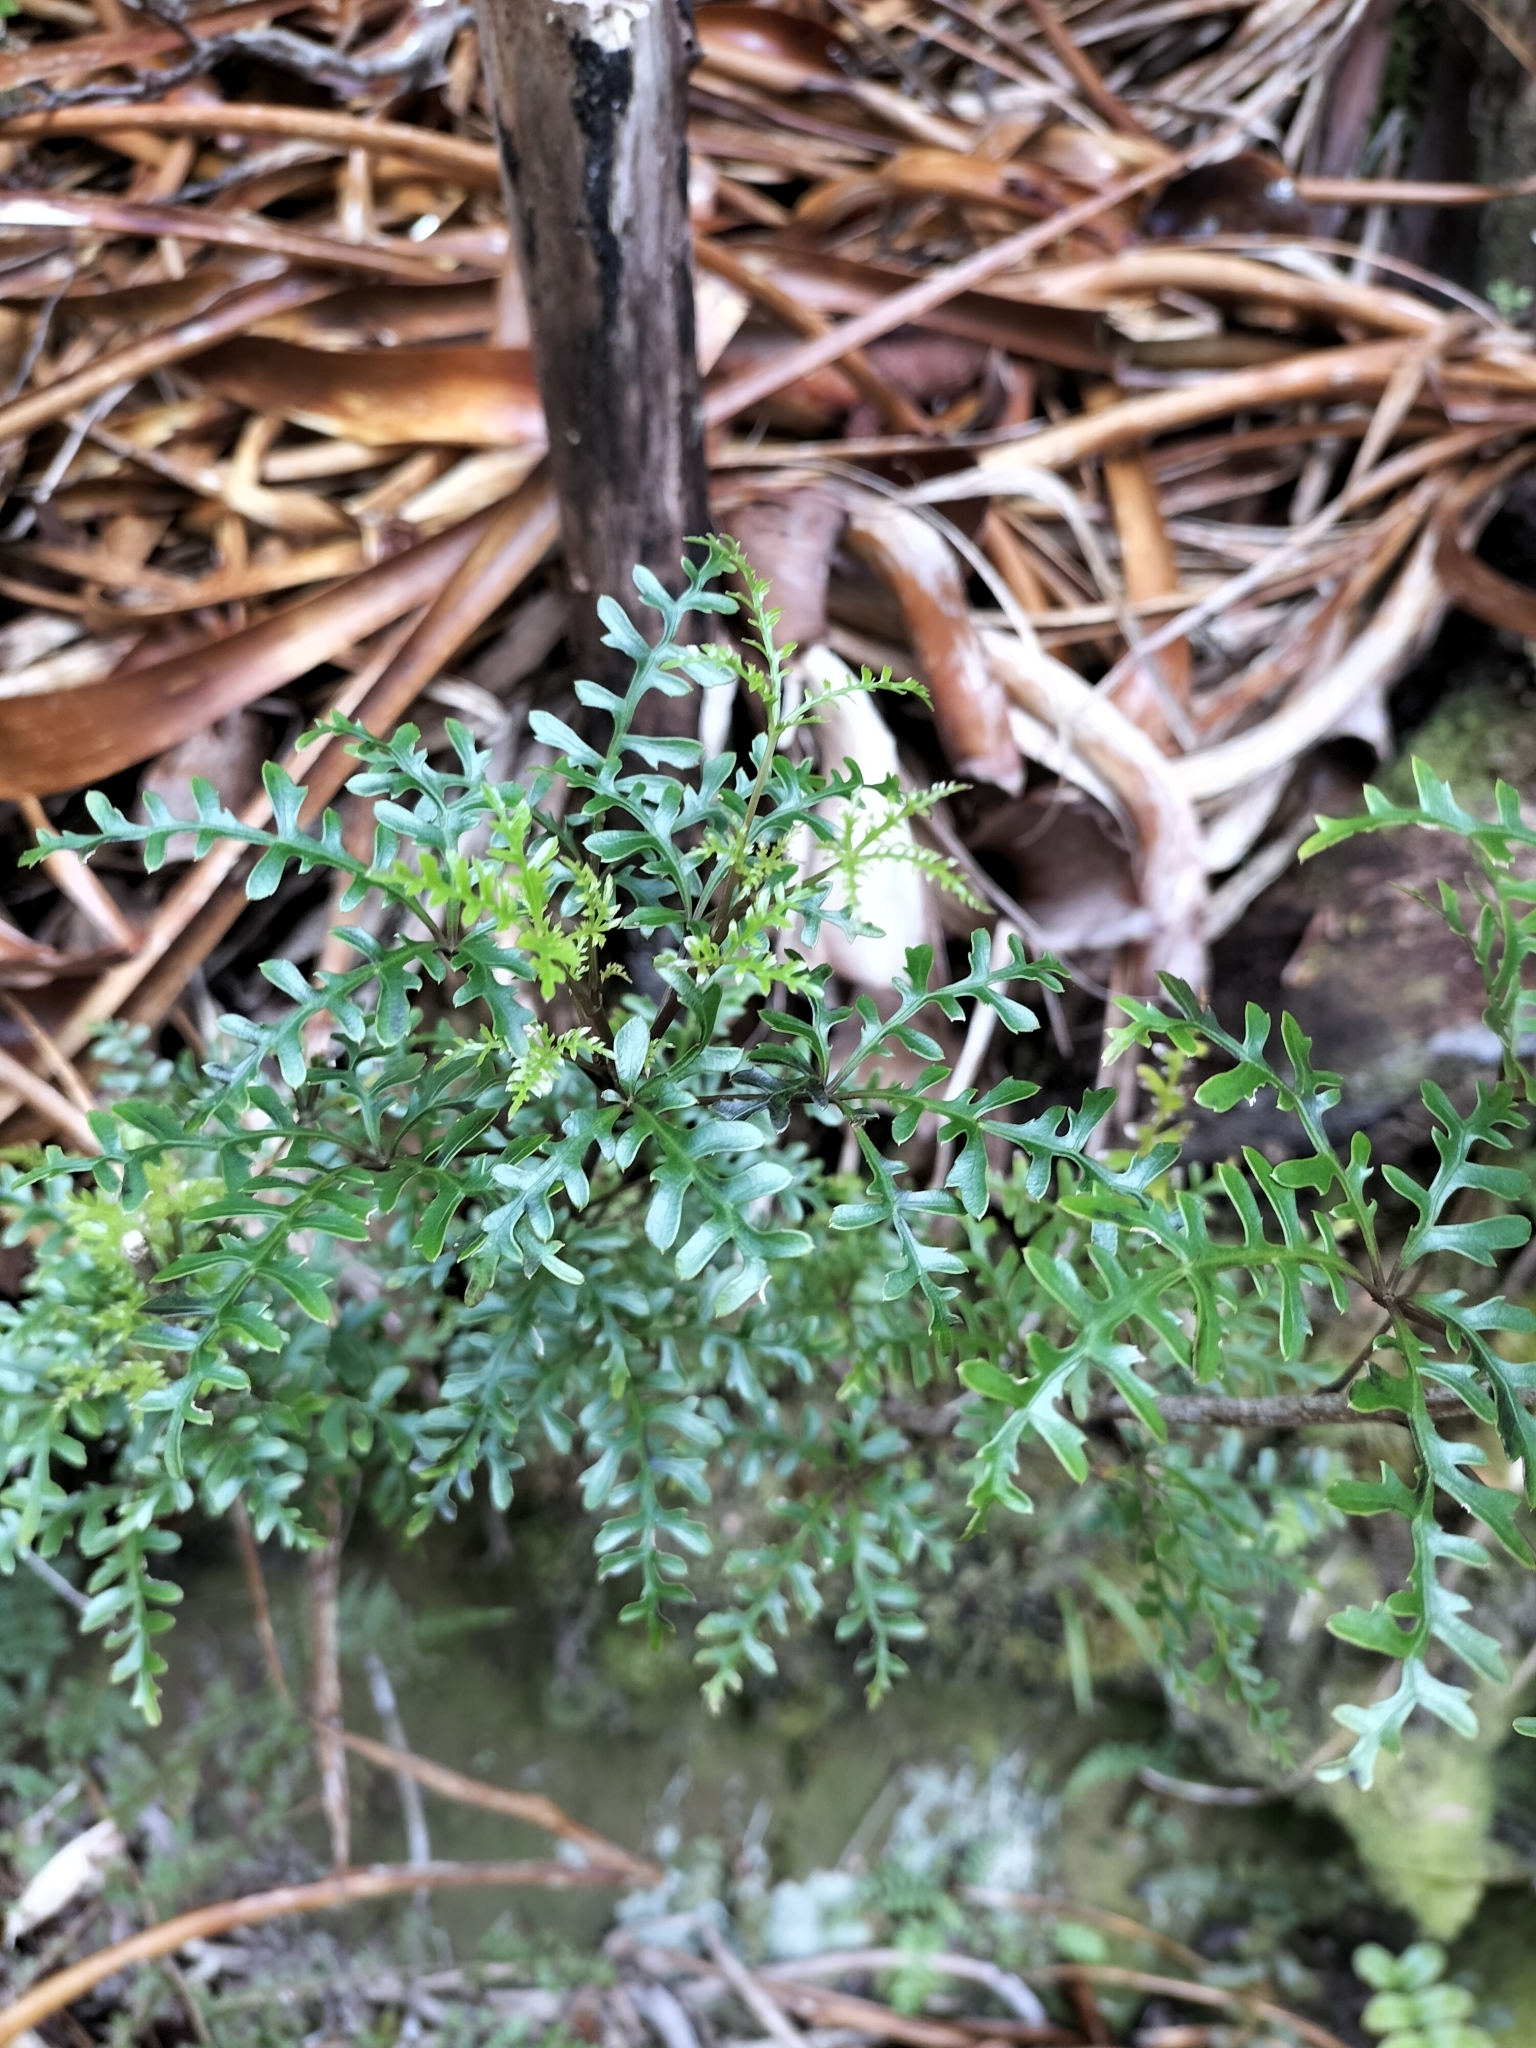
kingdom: Plantae
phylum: Tracheophyta
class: Magnoliopsida
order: Apiales
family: Araliaceae
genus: Raukaua
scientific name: Raukaua simplex
